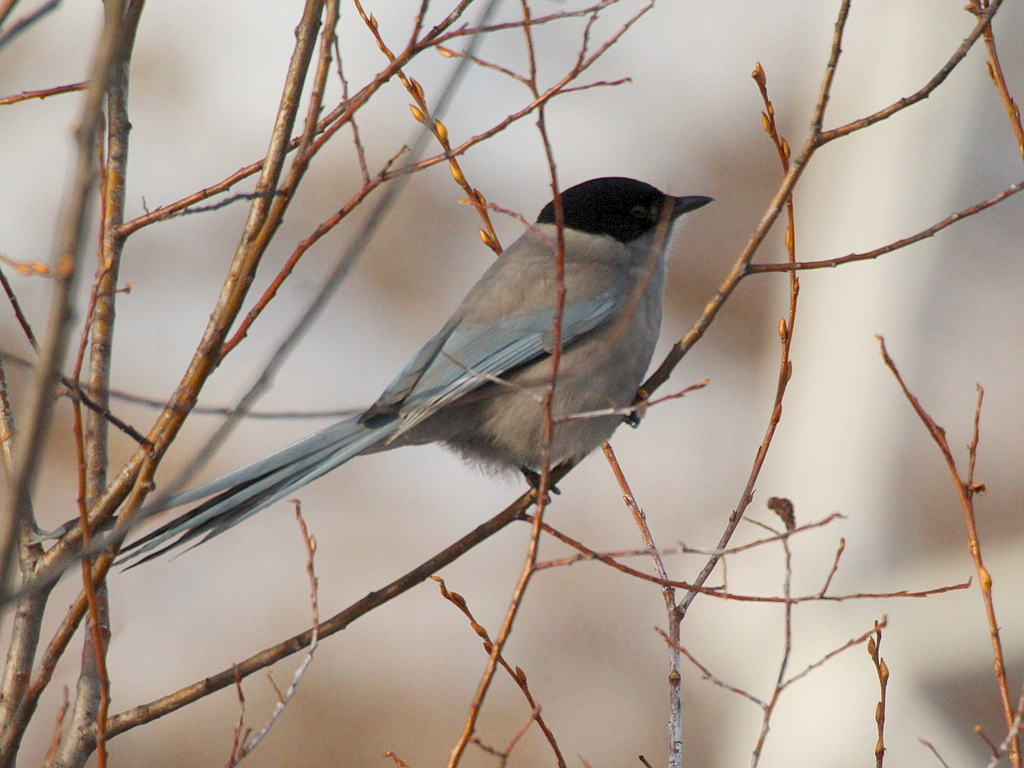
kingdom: Animalia
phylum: Chordata
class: Aves
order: Passeriformes
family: Corvidae
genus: Cyanopica
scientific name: Cyanopica cyanus
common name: Azure-winged magpie
